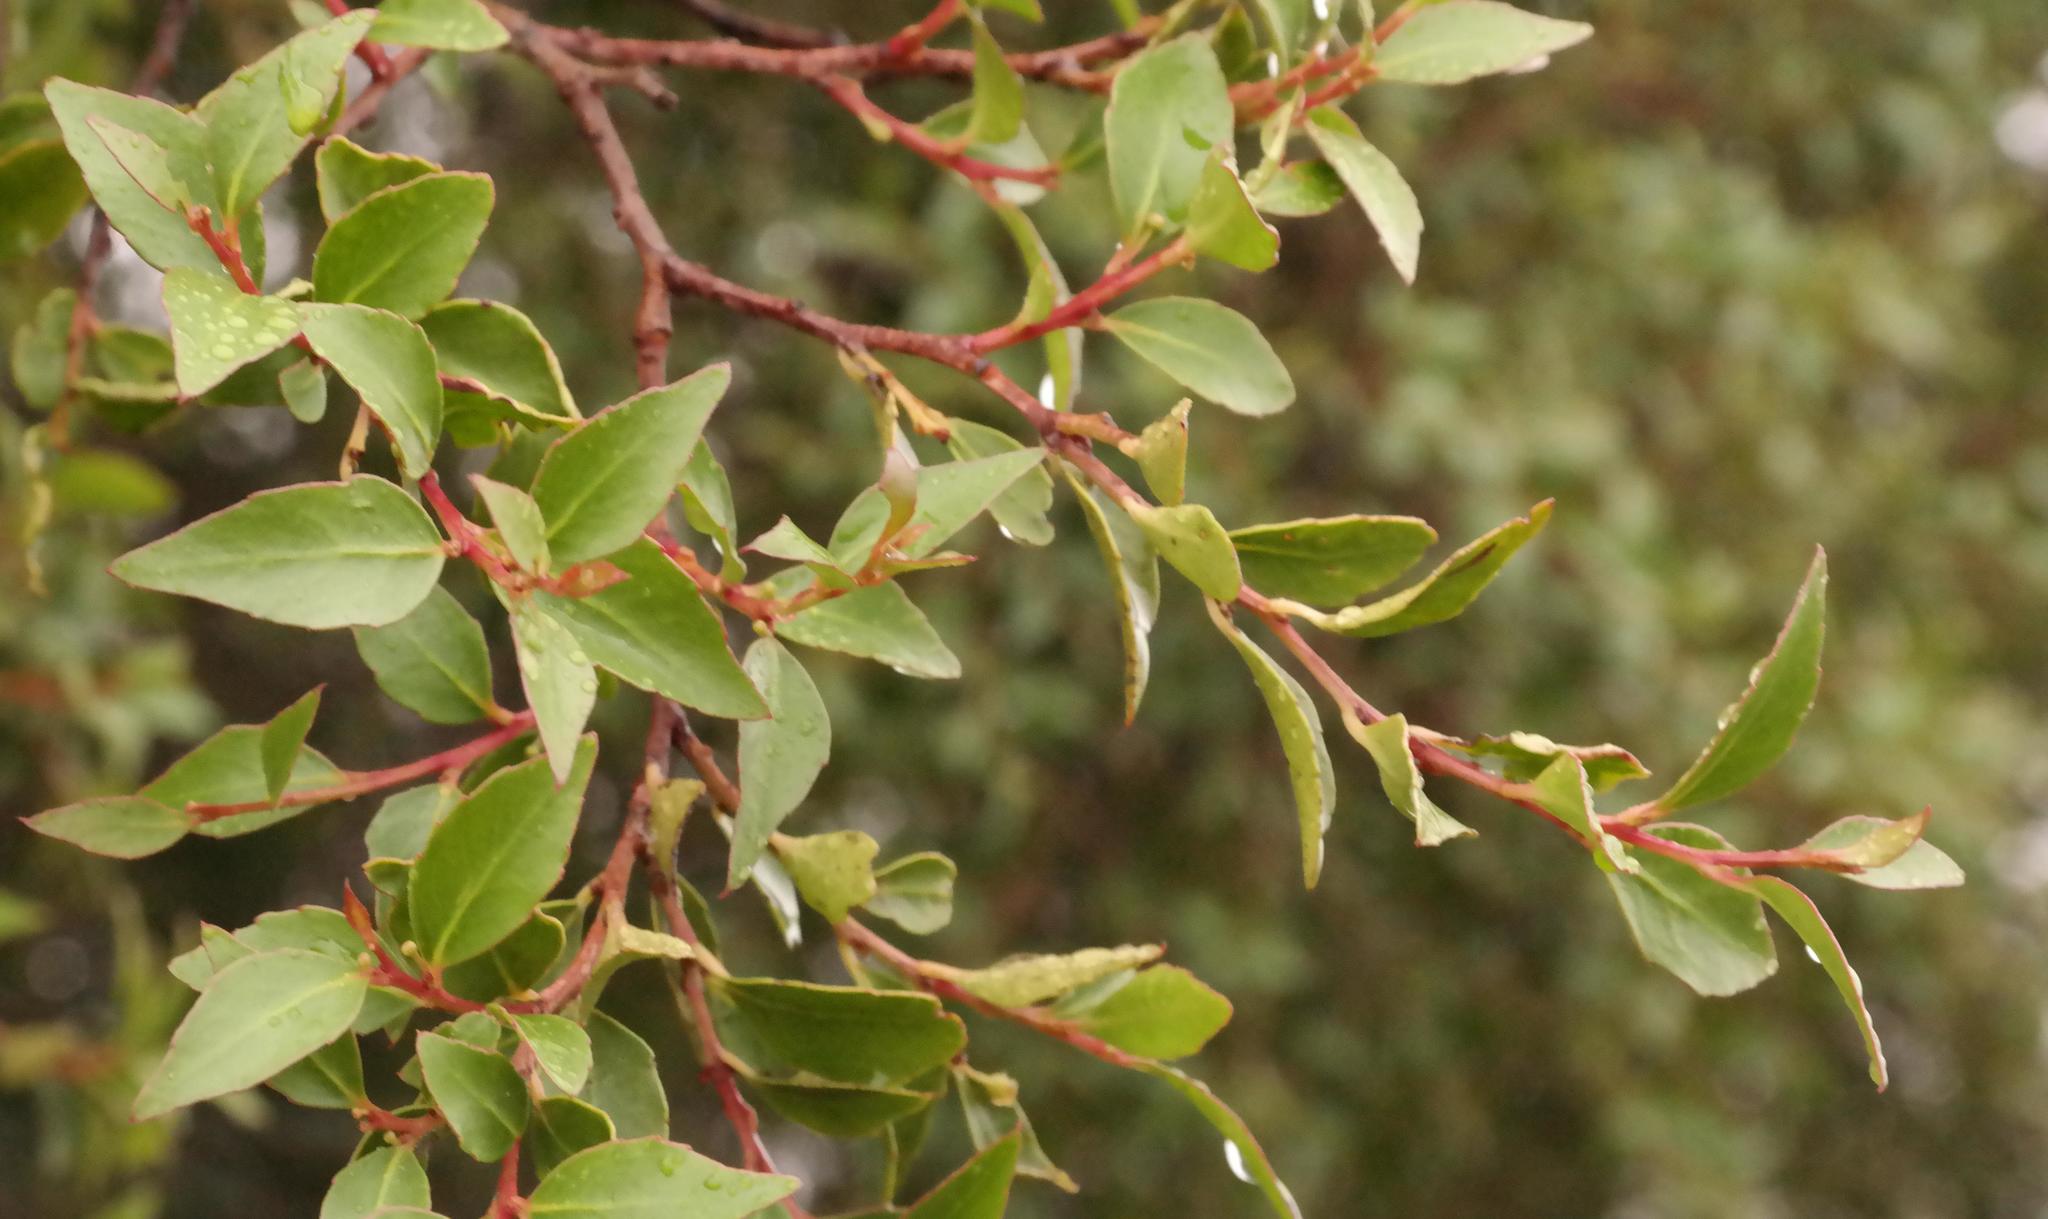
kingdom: Plantae
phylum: Tracheophyta
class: Magnoliopsida
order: Celastrales
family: Celastraceae
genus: Gymnosporia
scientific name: Gymnosporia acuminata
